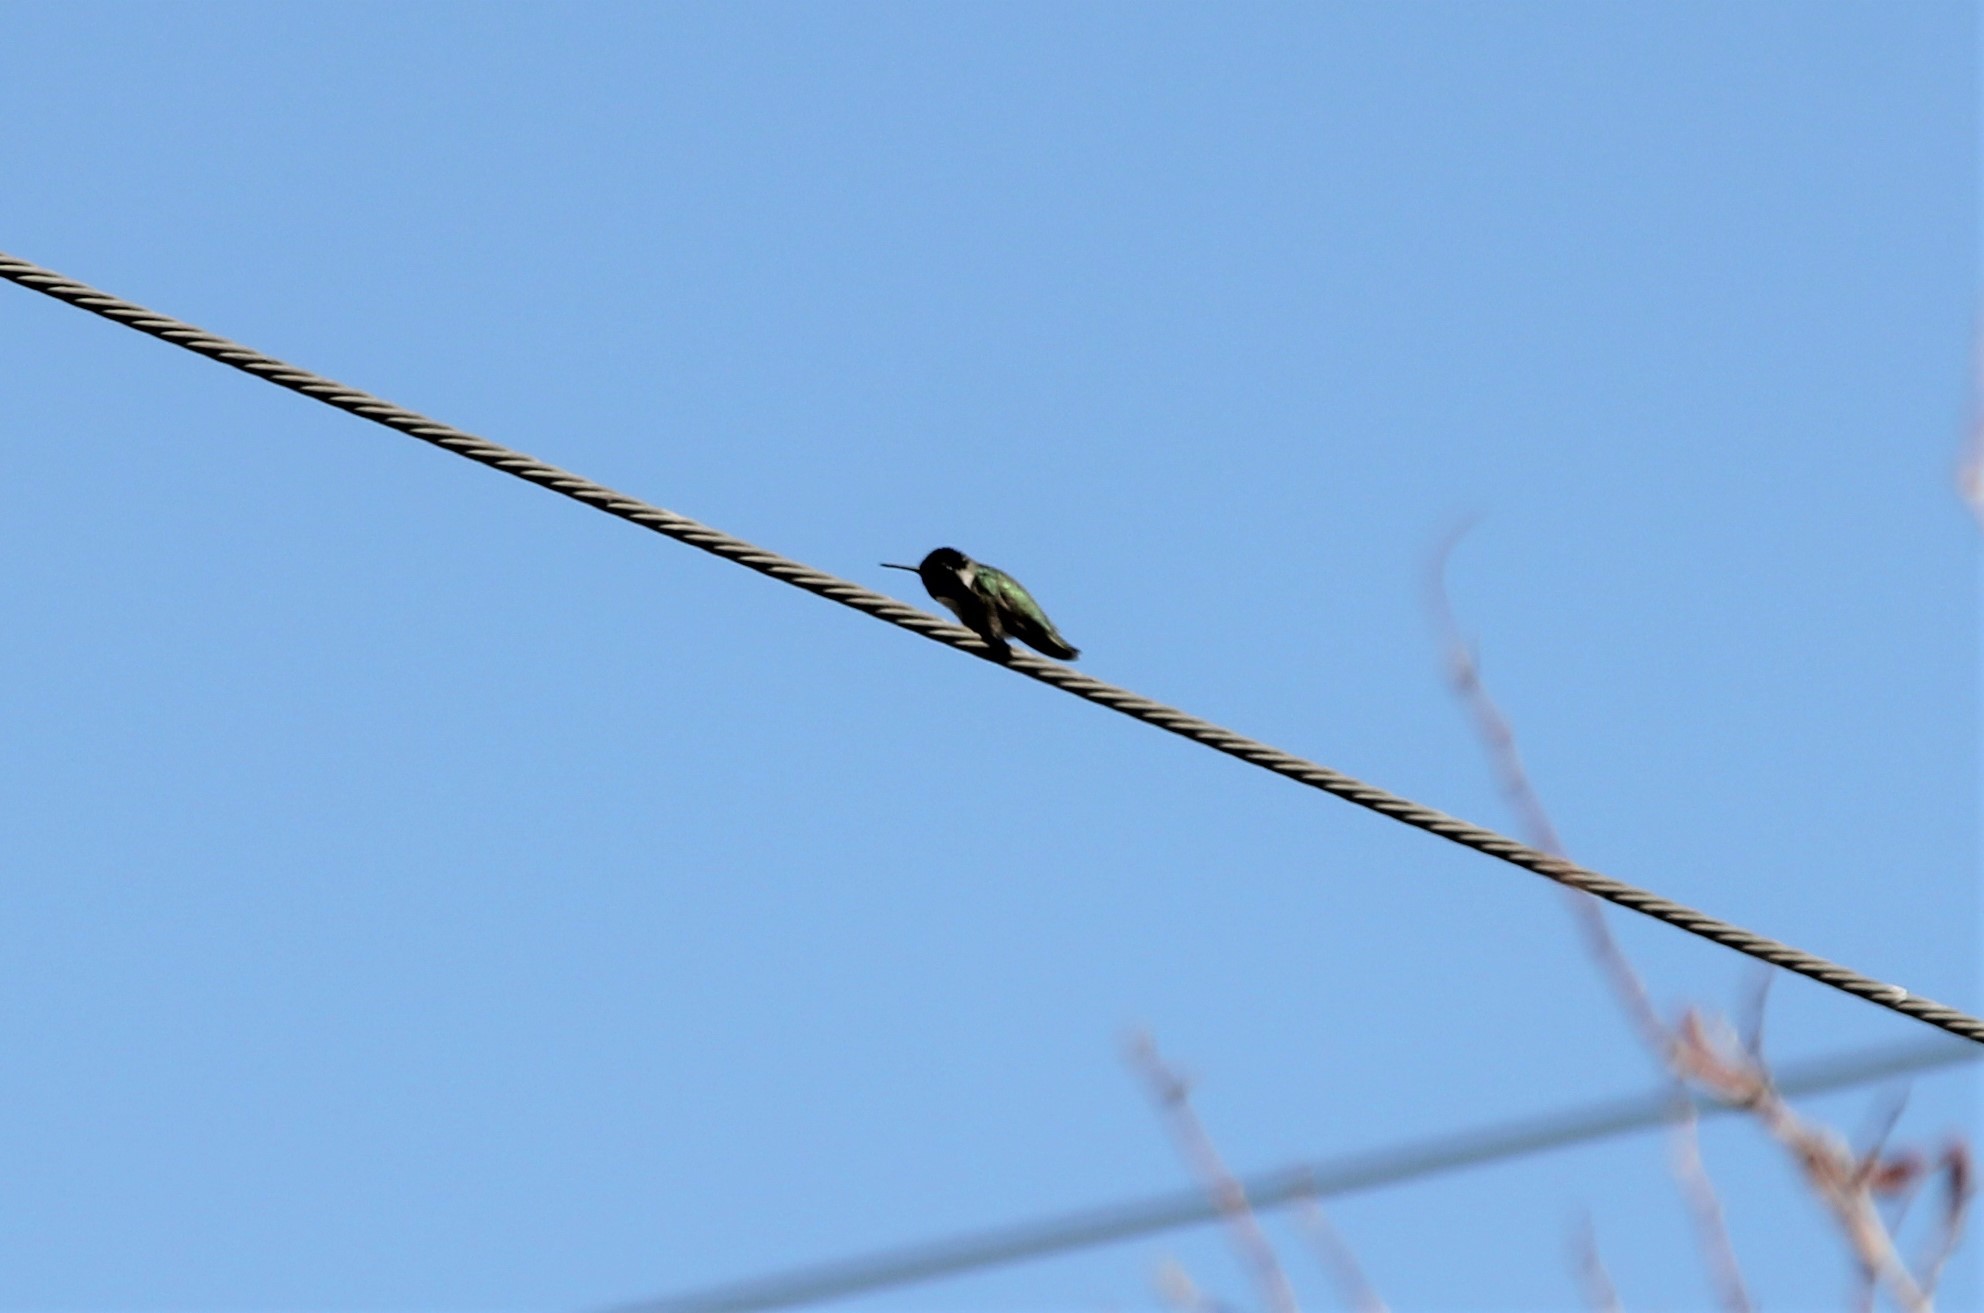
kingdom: Animalia
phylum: Chordata
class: Aves
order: Apodiformes
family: Trochilidae
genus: Calypte
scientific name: Calypte costae
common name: Costa's hummingbird
